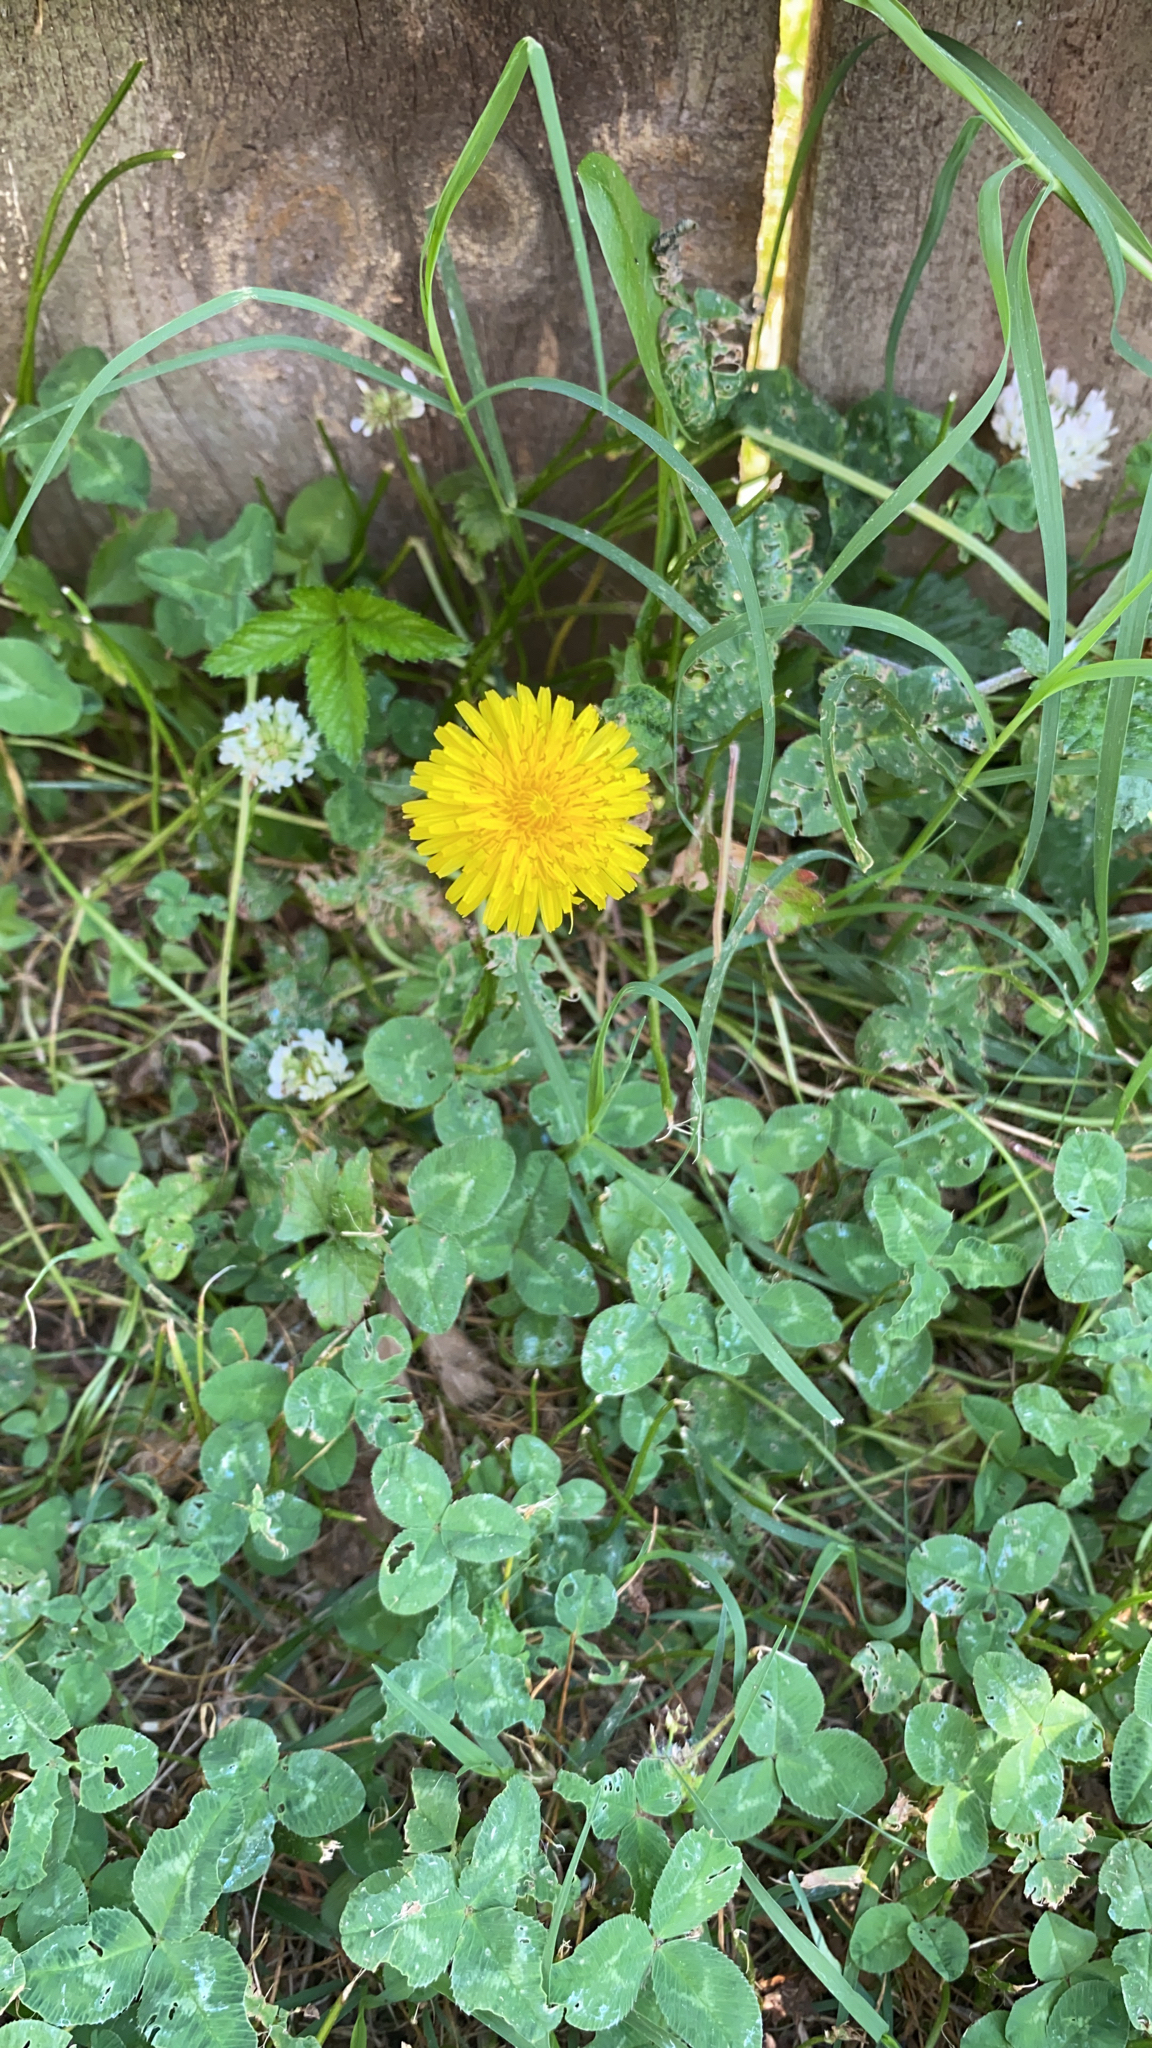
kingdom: Plantae
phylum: Tracheophyta
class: Magnoliopsida
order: Asterales
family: Asteraceae
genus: Taraxacum
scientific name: Taraxacum officinale
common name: Common dandelion
